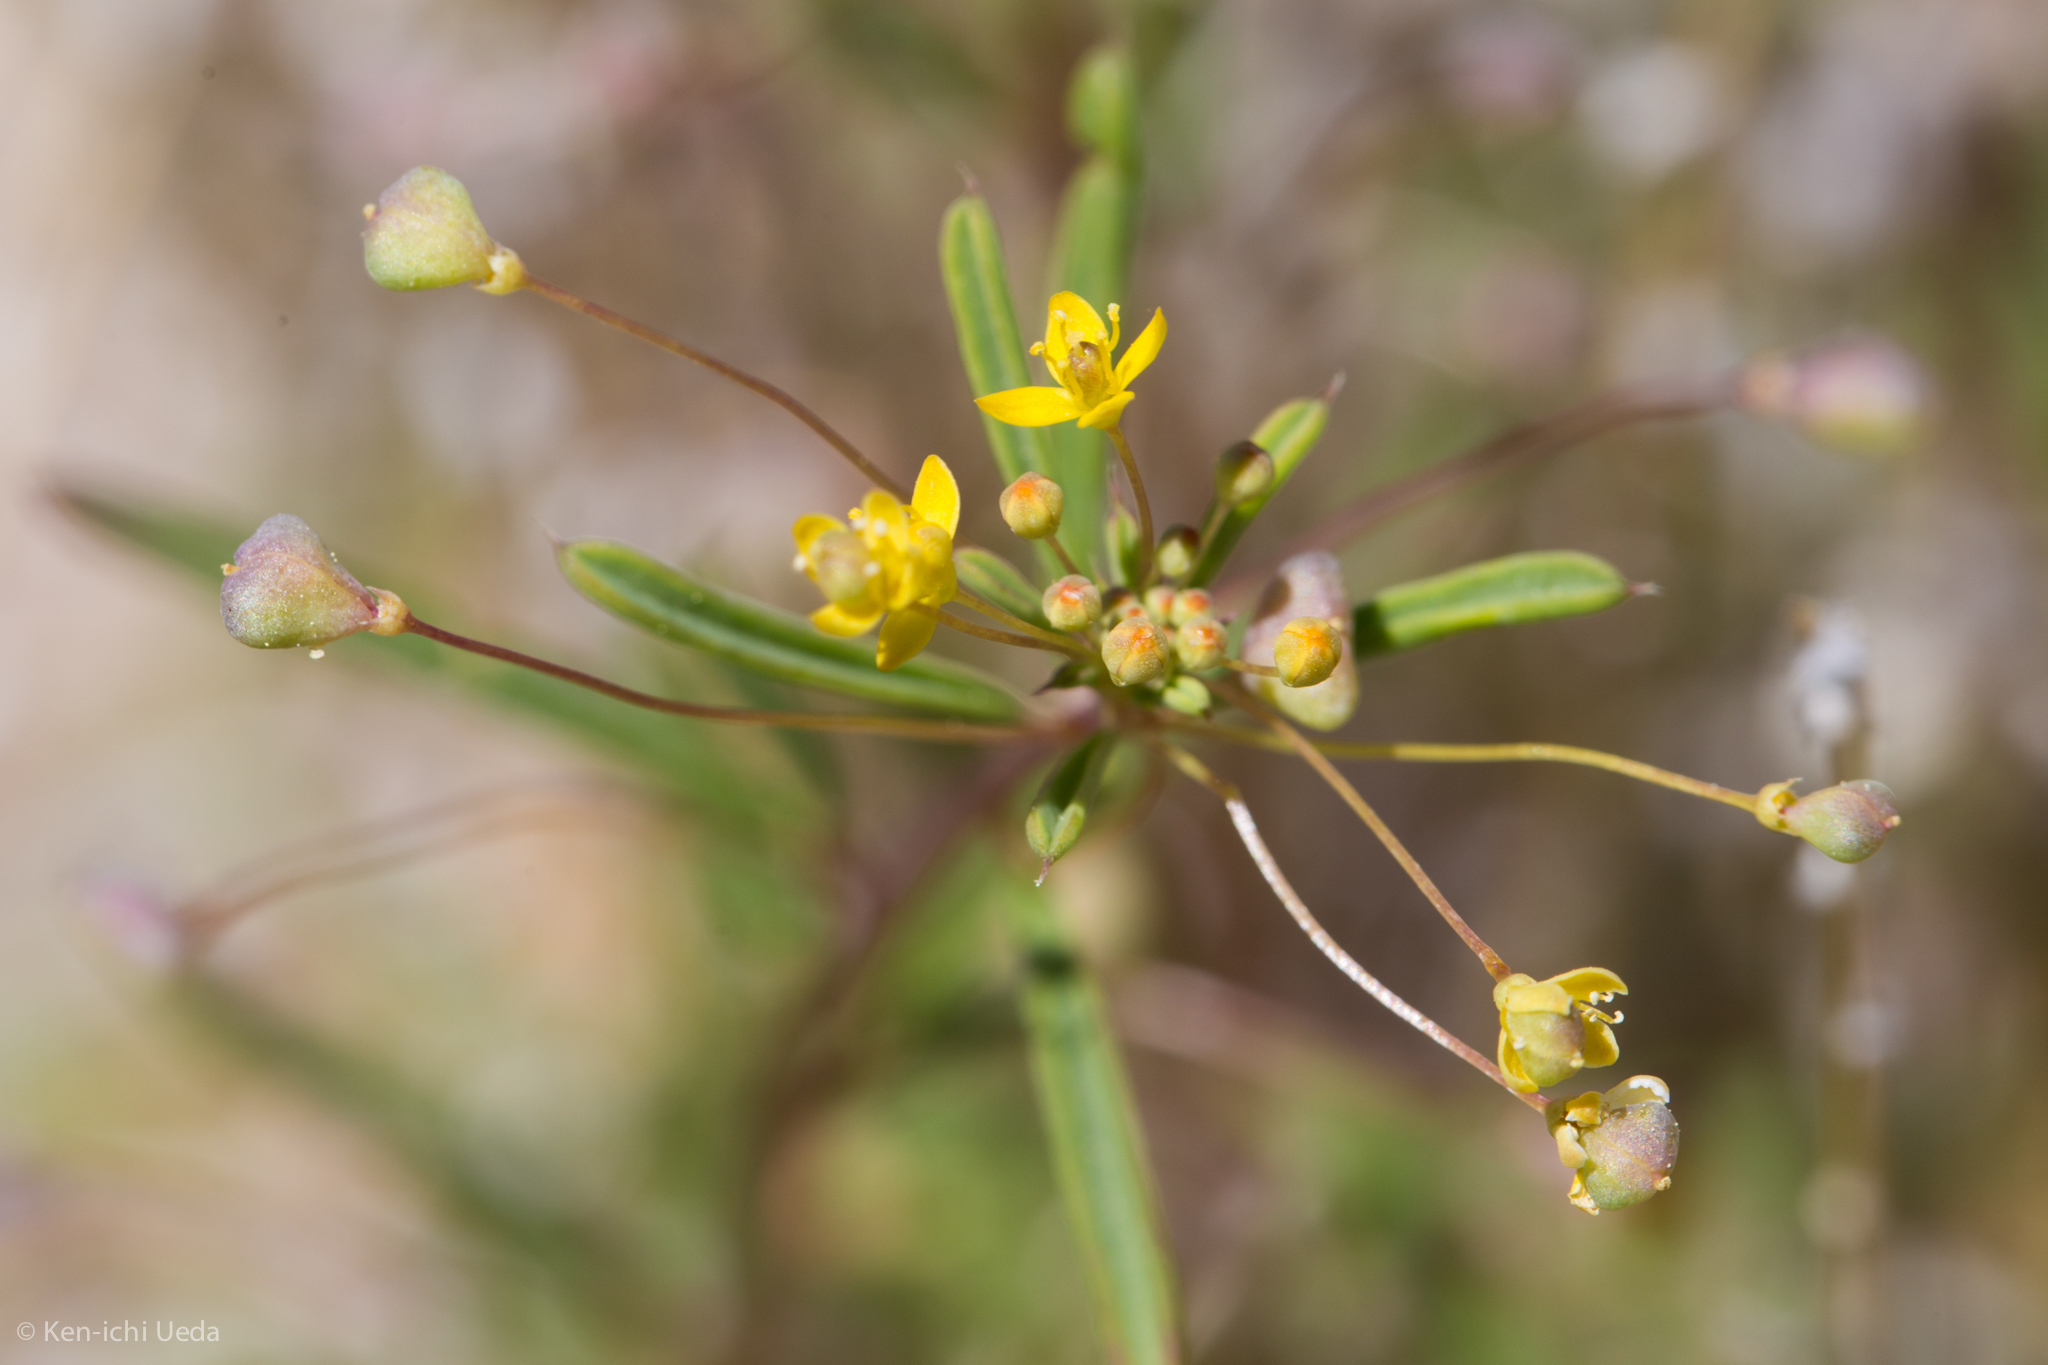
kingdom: Plantae
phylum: Tracheophyta
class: Magnoliopsida
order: Brassicales
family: Cleomaceae
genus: Cleomella
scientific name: Cleomella parviflora
